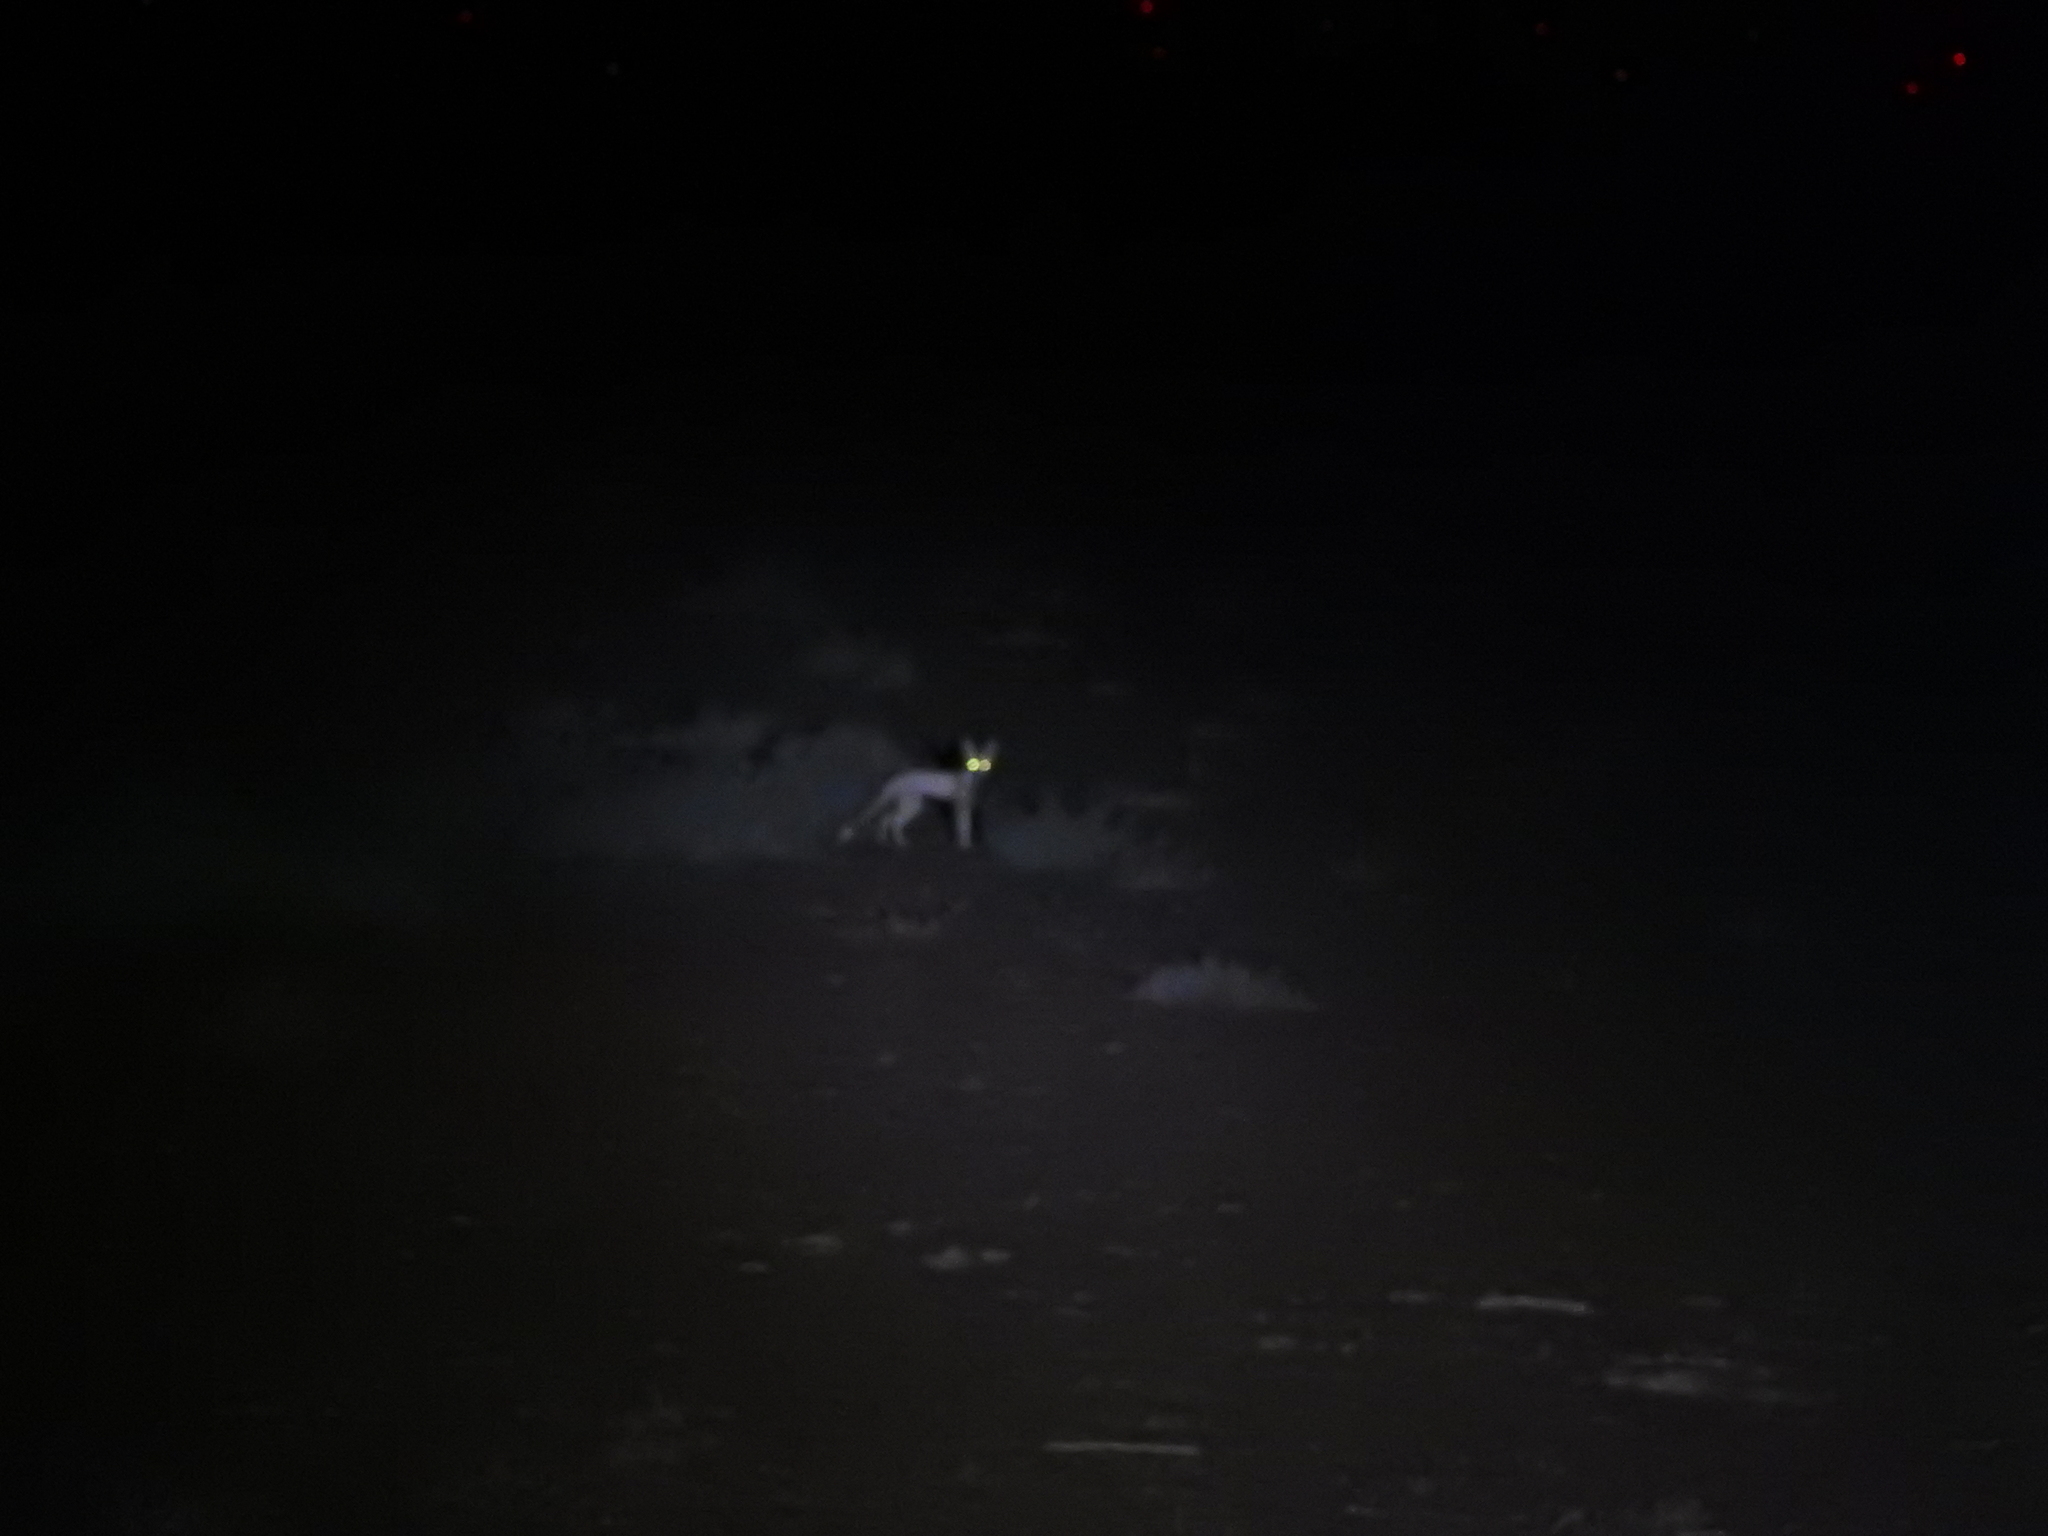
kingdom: Animalia
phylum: Chordata
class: Mammalia
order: Carnivora
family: Canidae
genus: Vulpes
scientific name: Vulpes vulpes
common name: Red fox
